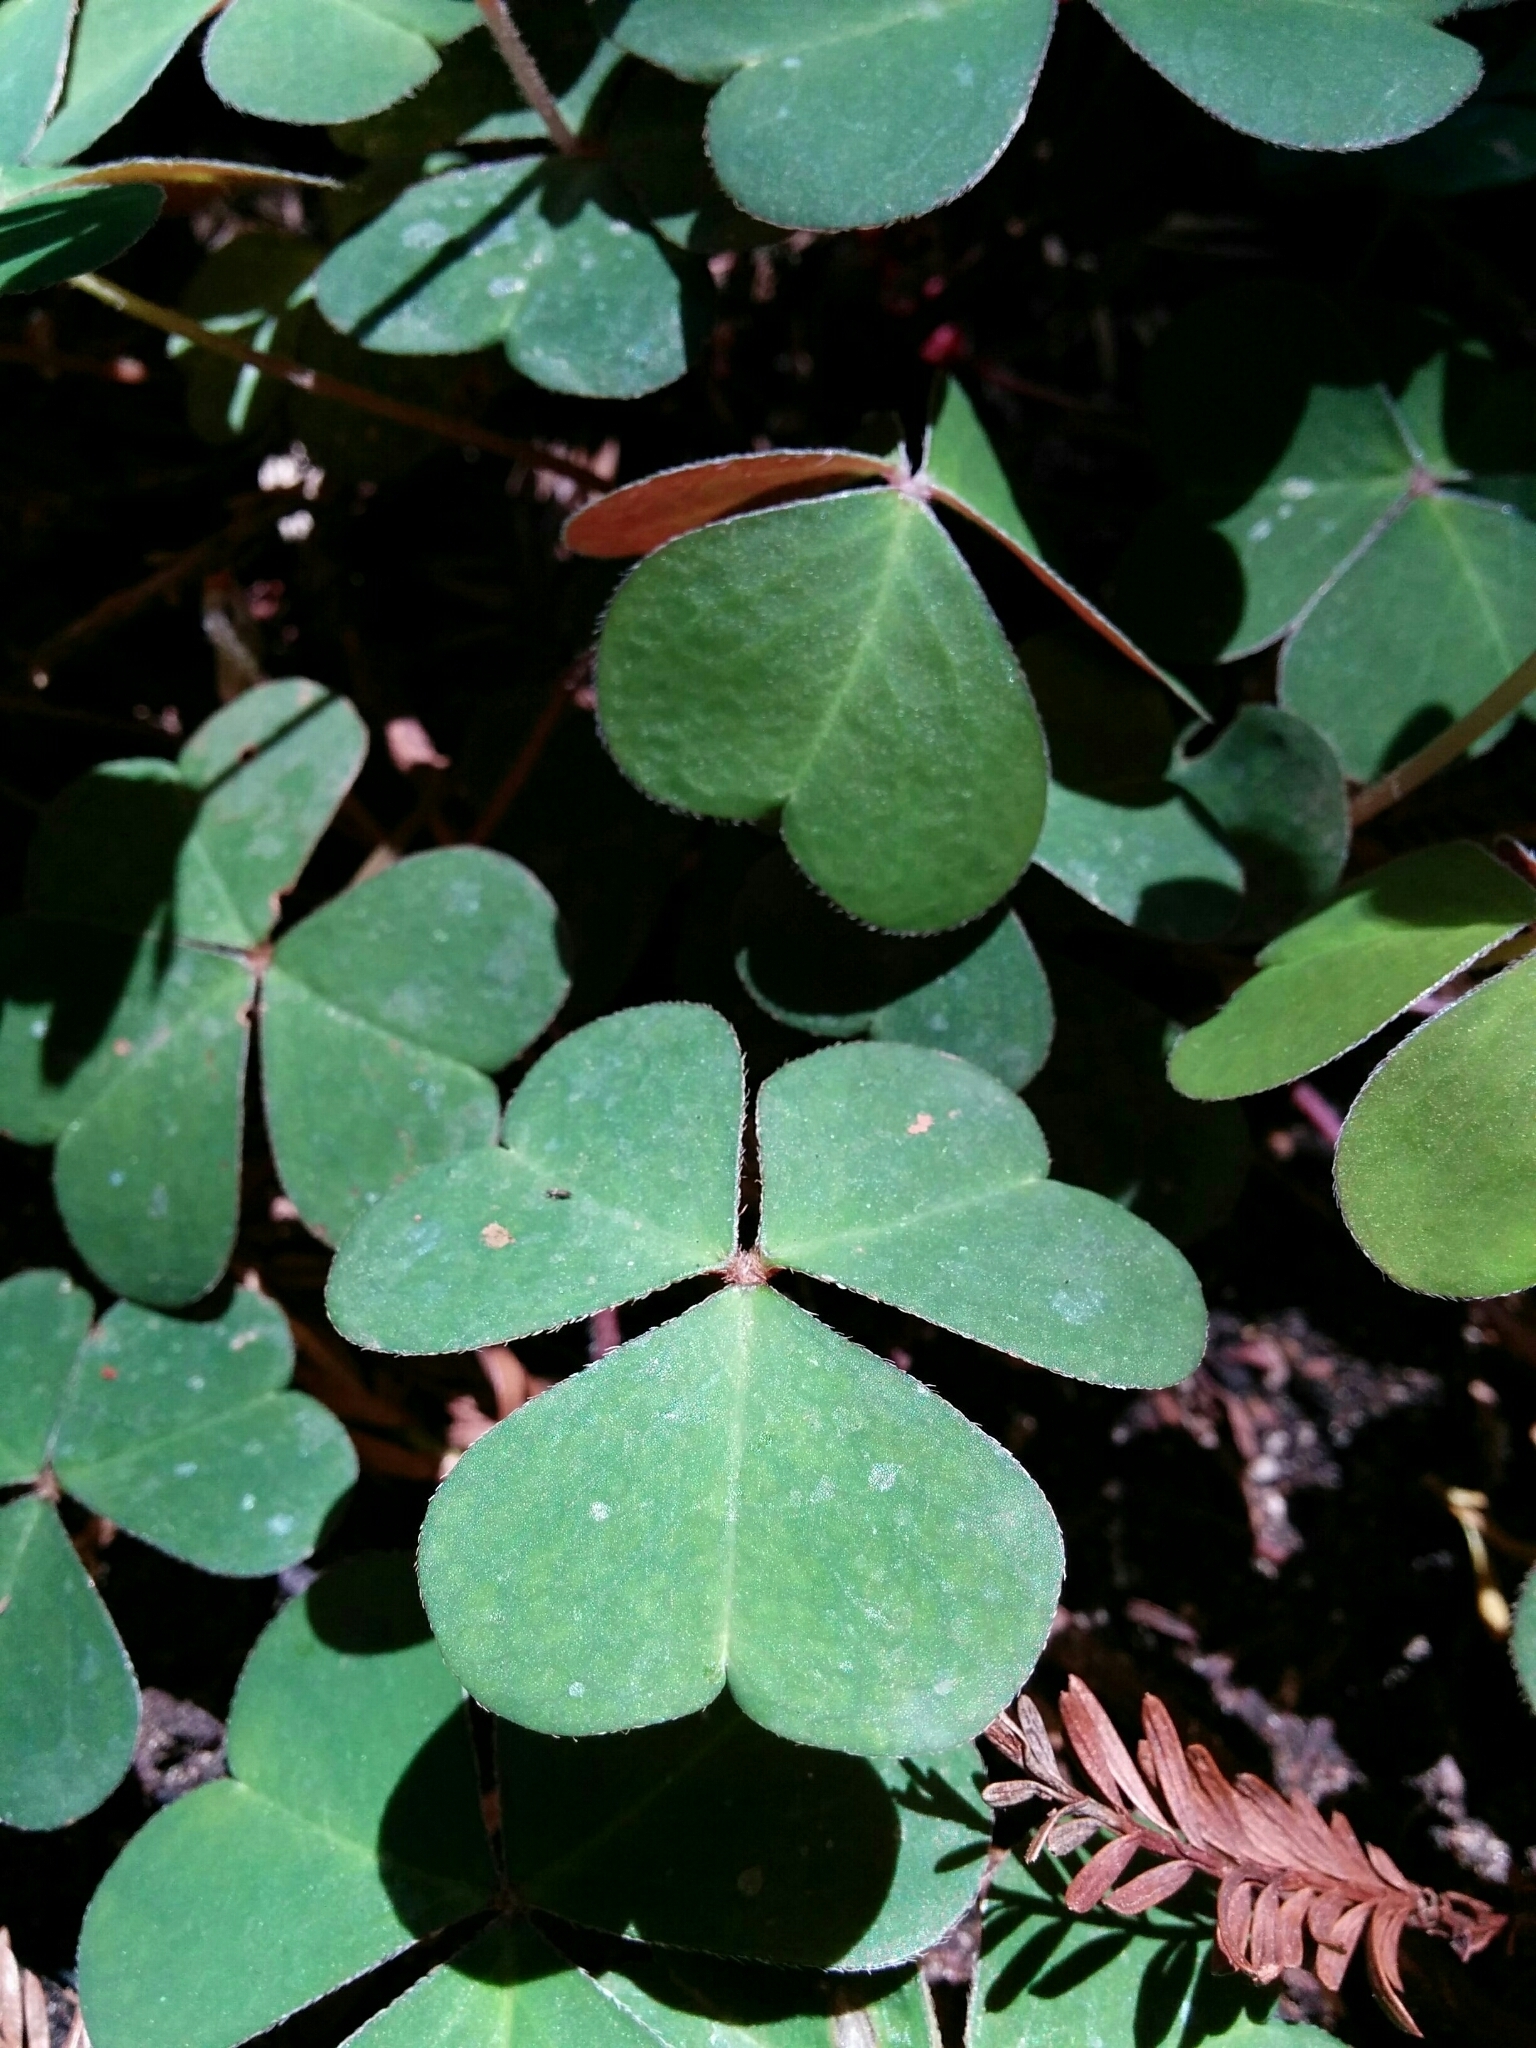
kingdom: Plantae
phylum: Tracheophyta
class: Magnoliopsida
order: Oxalidales
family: Oxalidaceae
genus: Oxalis
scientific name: Oxalis oregana
